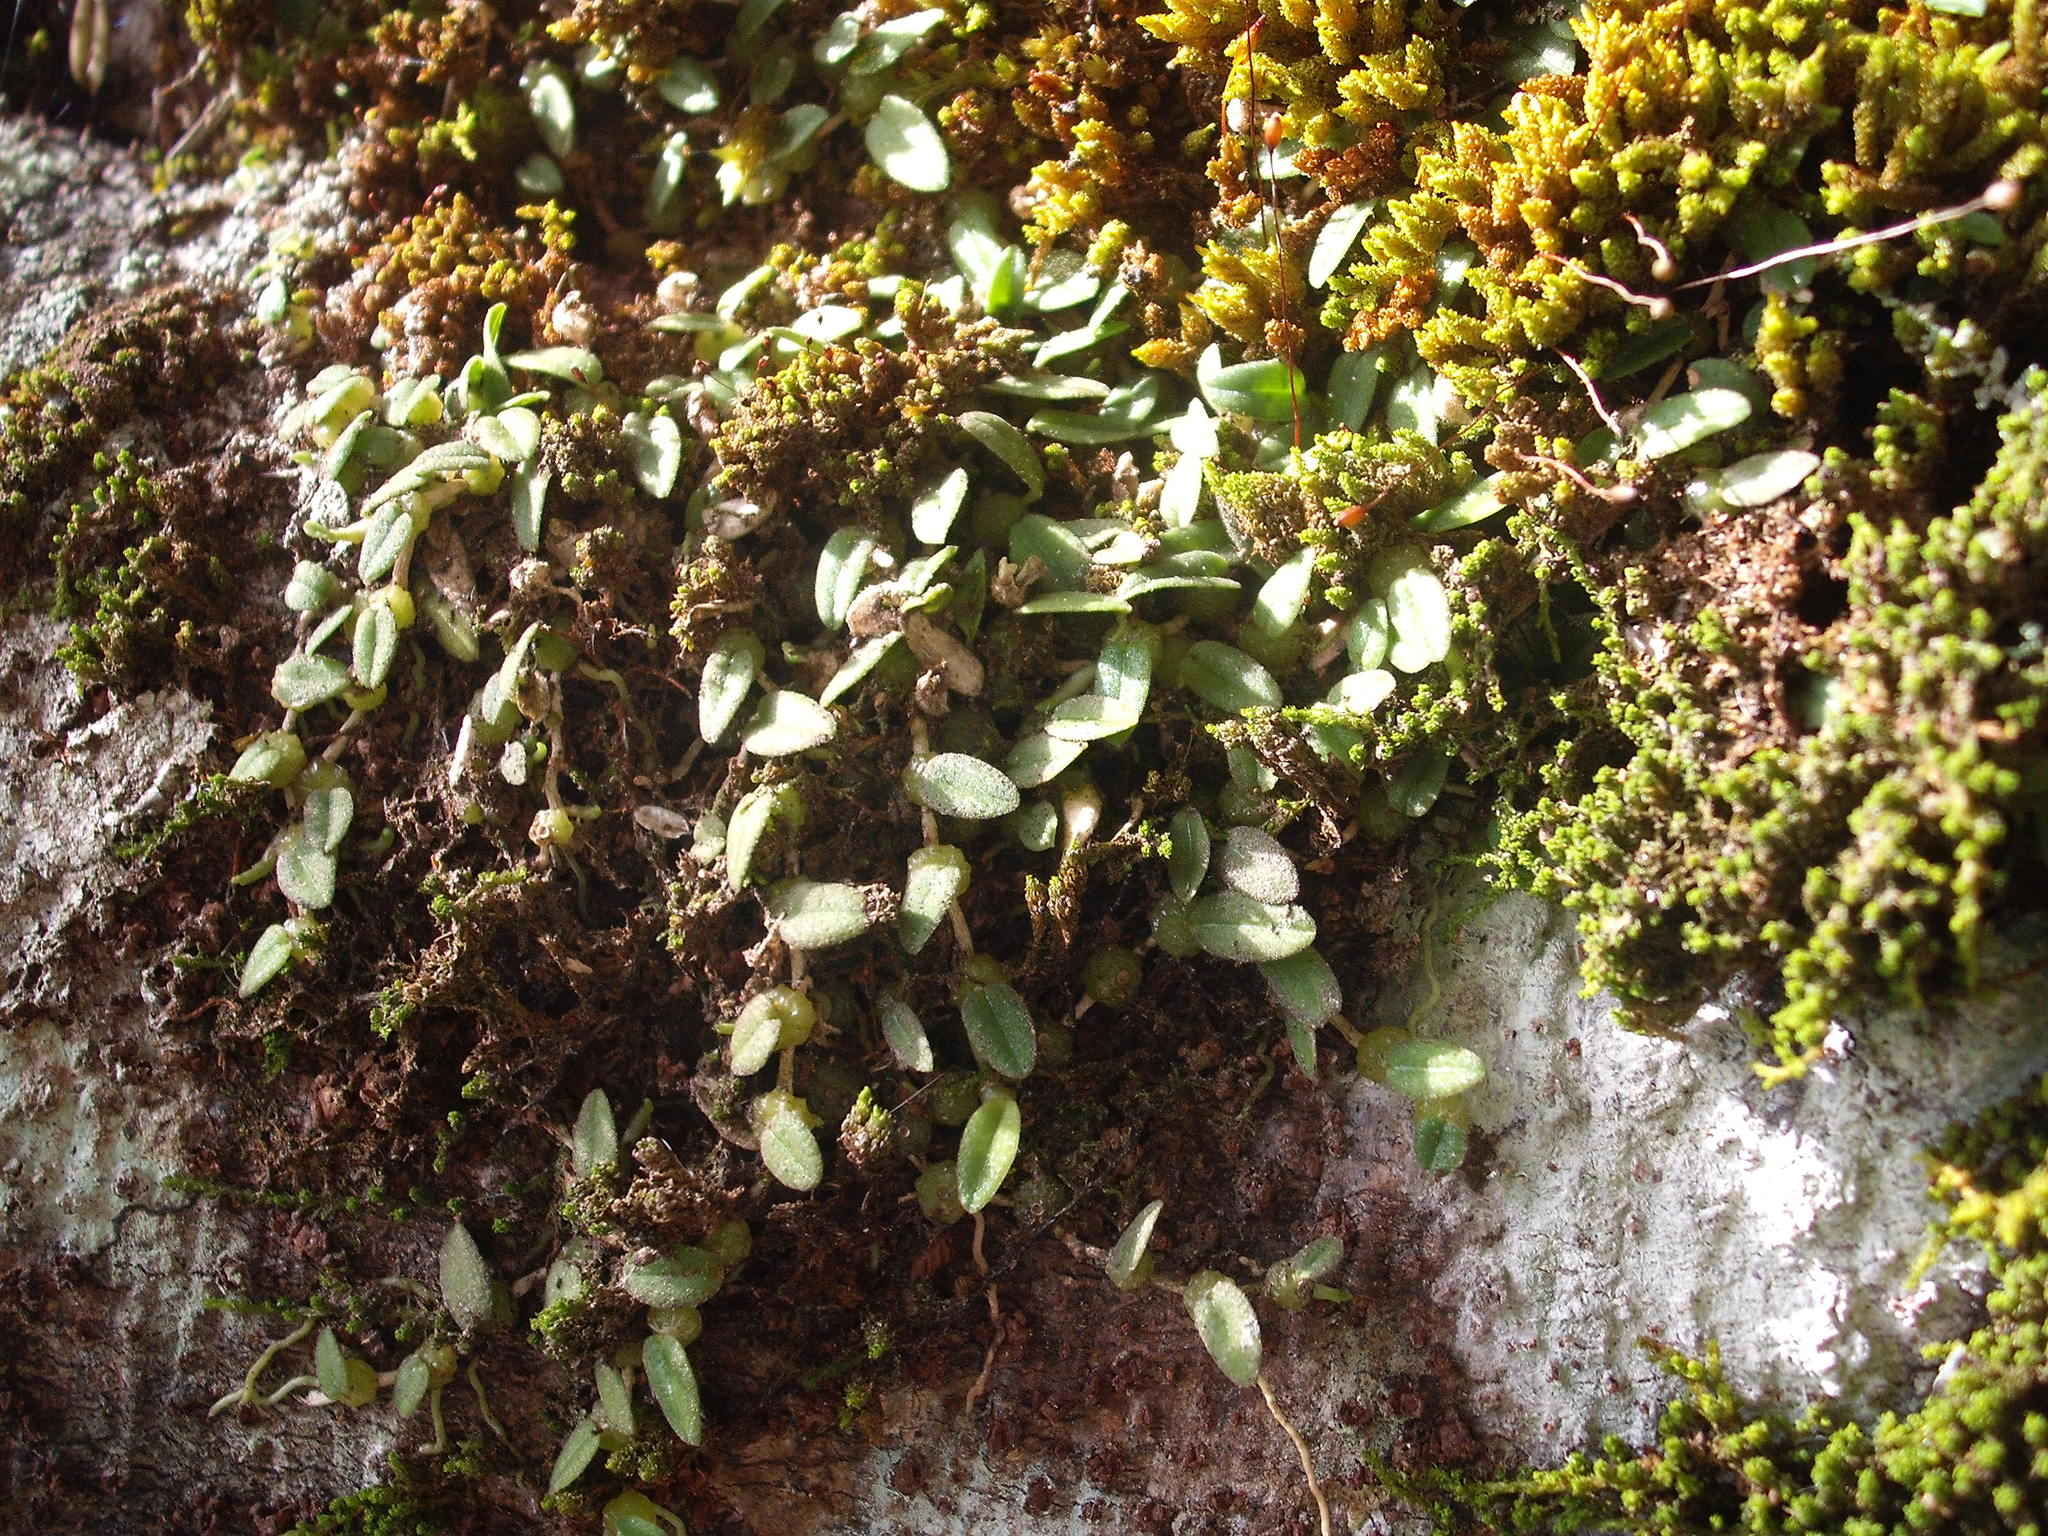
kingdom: Plantae
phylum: Tracheophyta
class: Liliopsida
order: Asparagales
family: Orchidaceae
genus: Bulbophyllum
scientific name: Bulbophyllum pygmaeum
